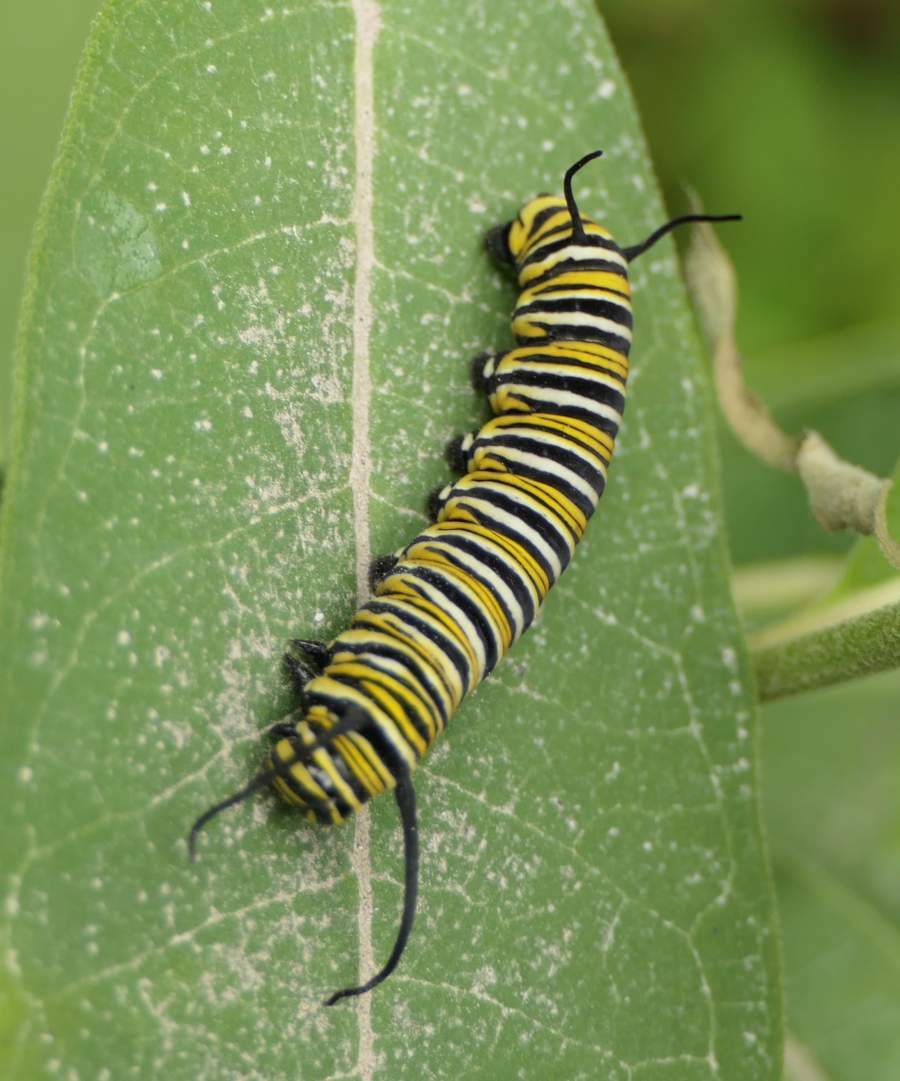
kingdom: Animalia
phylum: Arthropoda
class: Insecta
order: Lepidoptera
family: Nymphalidae
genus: Danaus
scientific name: Danaus plexippus
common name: Monarch
